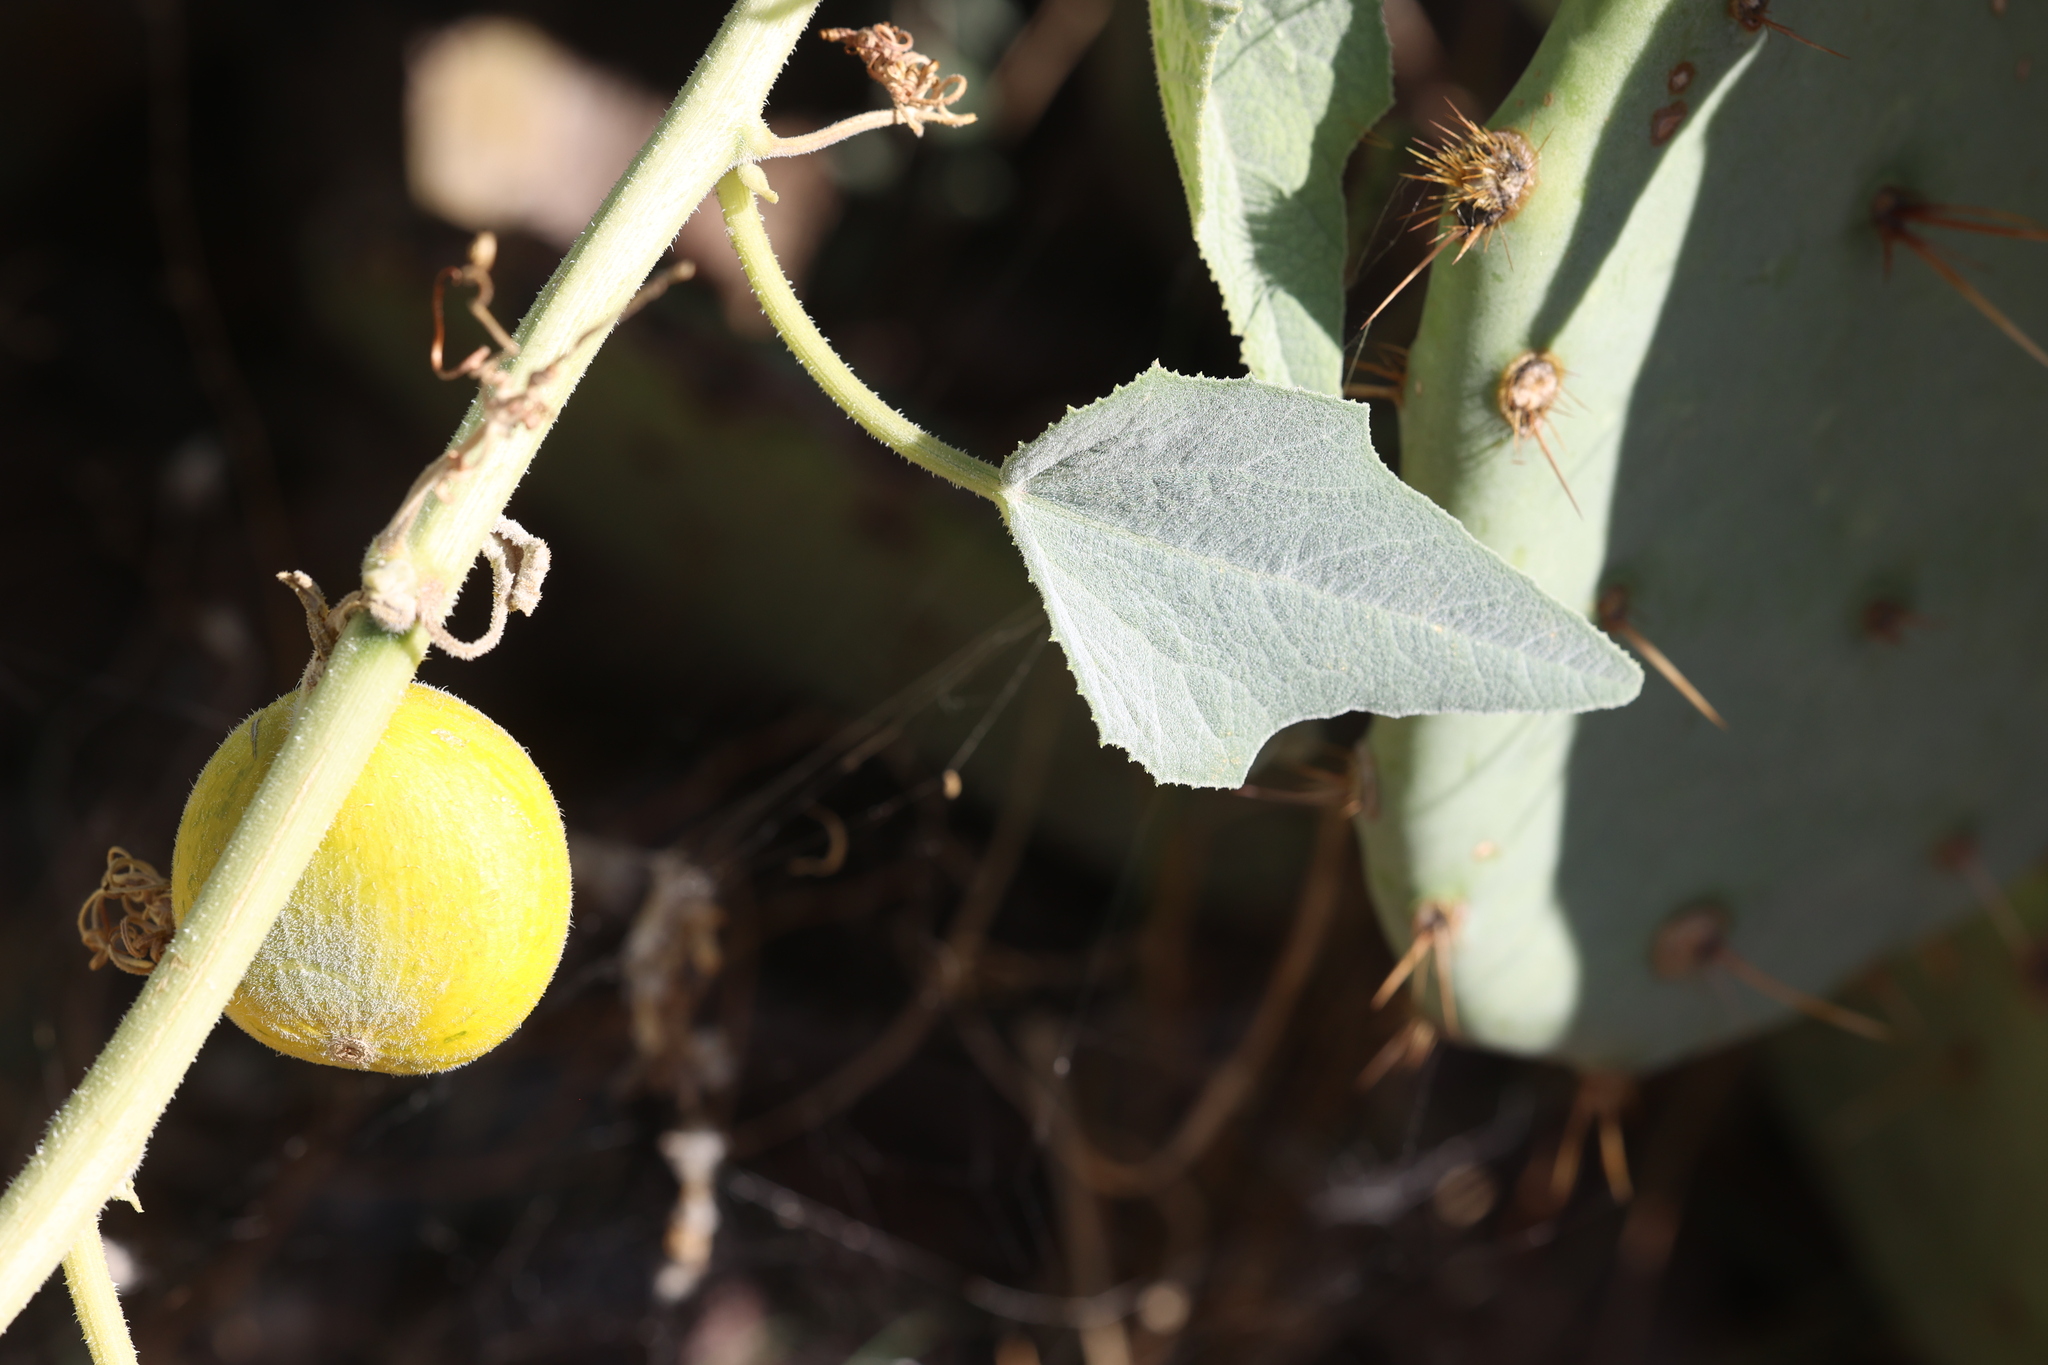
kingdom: Plantae
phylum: Tracheophyta
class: Magnoliopsida
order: Cucurbitales
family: Cucurbitaceae
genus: Cucurbita
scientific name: Cucurbita foetidissima
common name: Buffalo gourd
